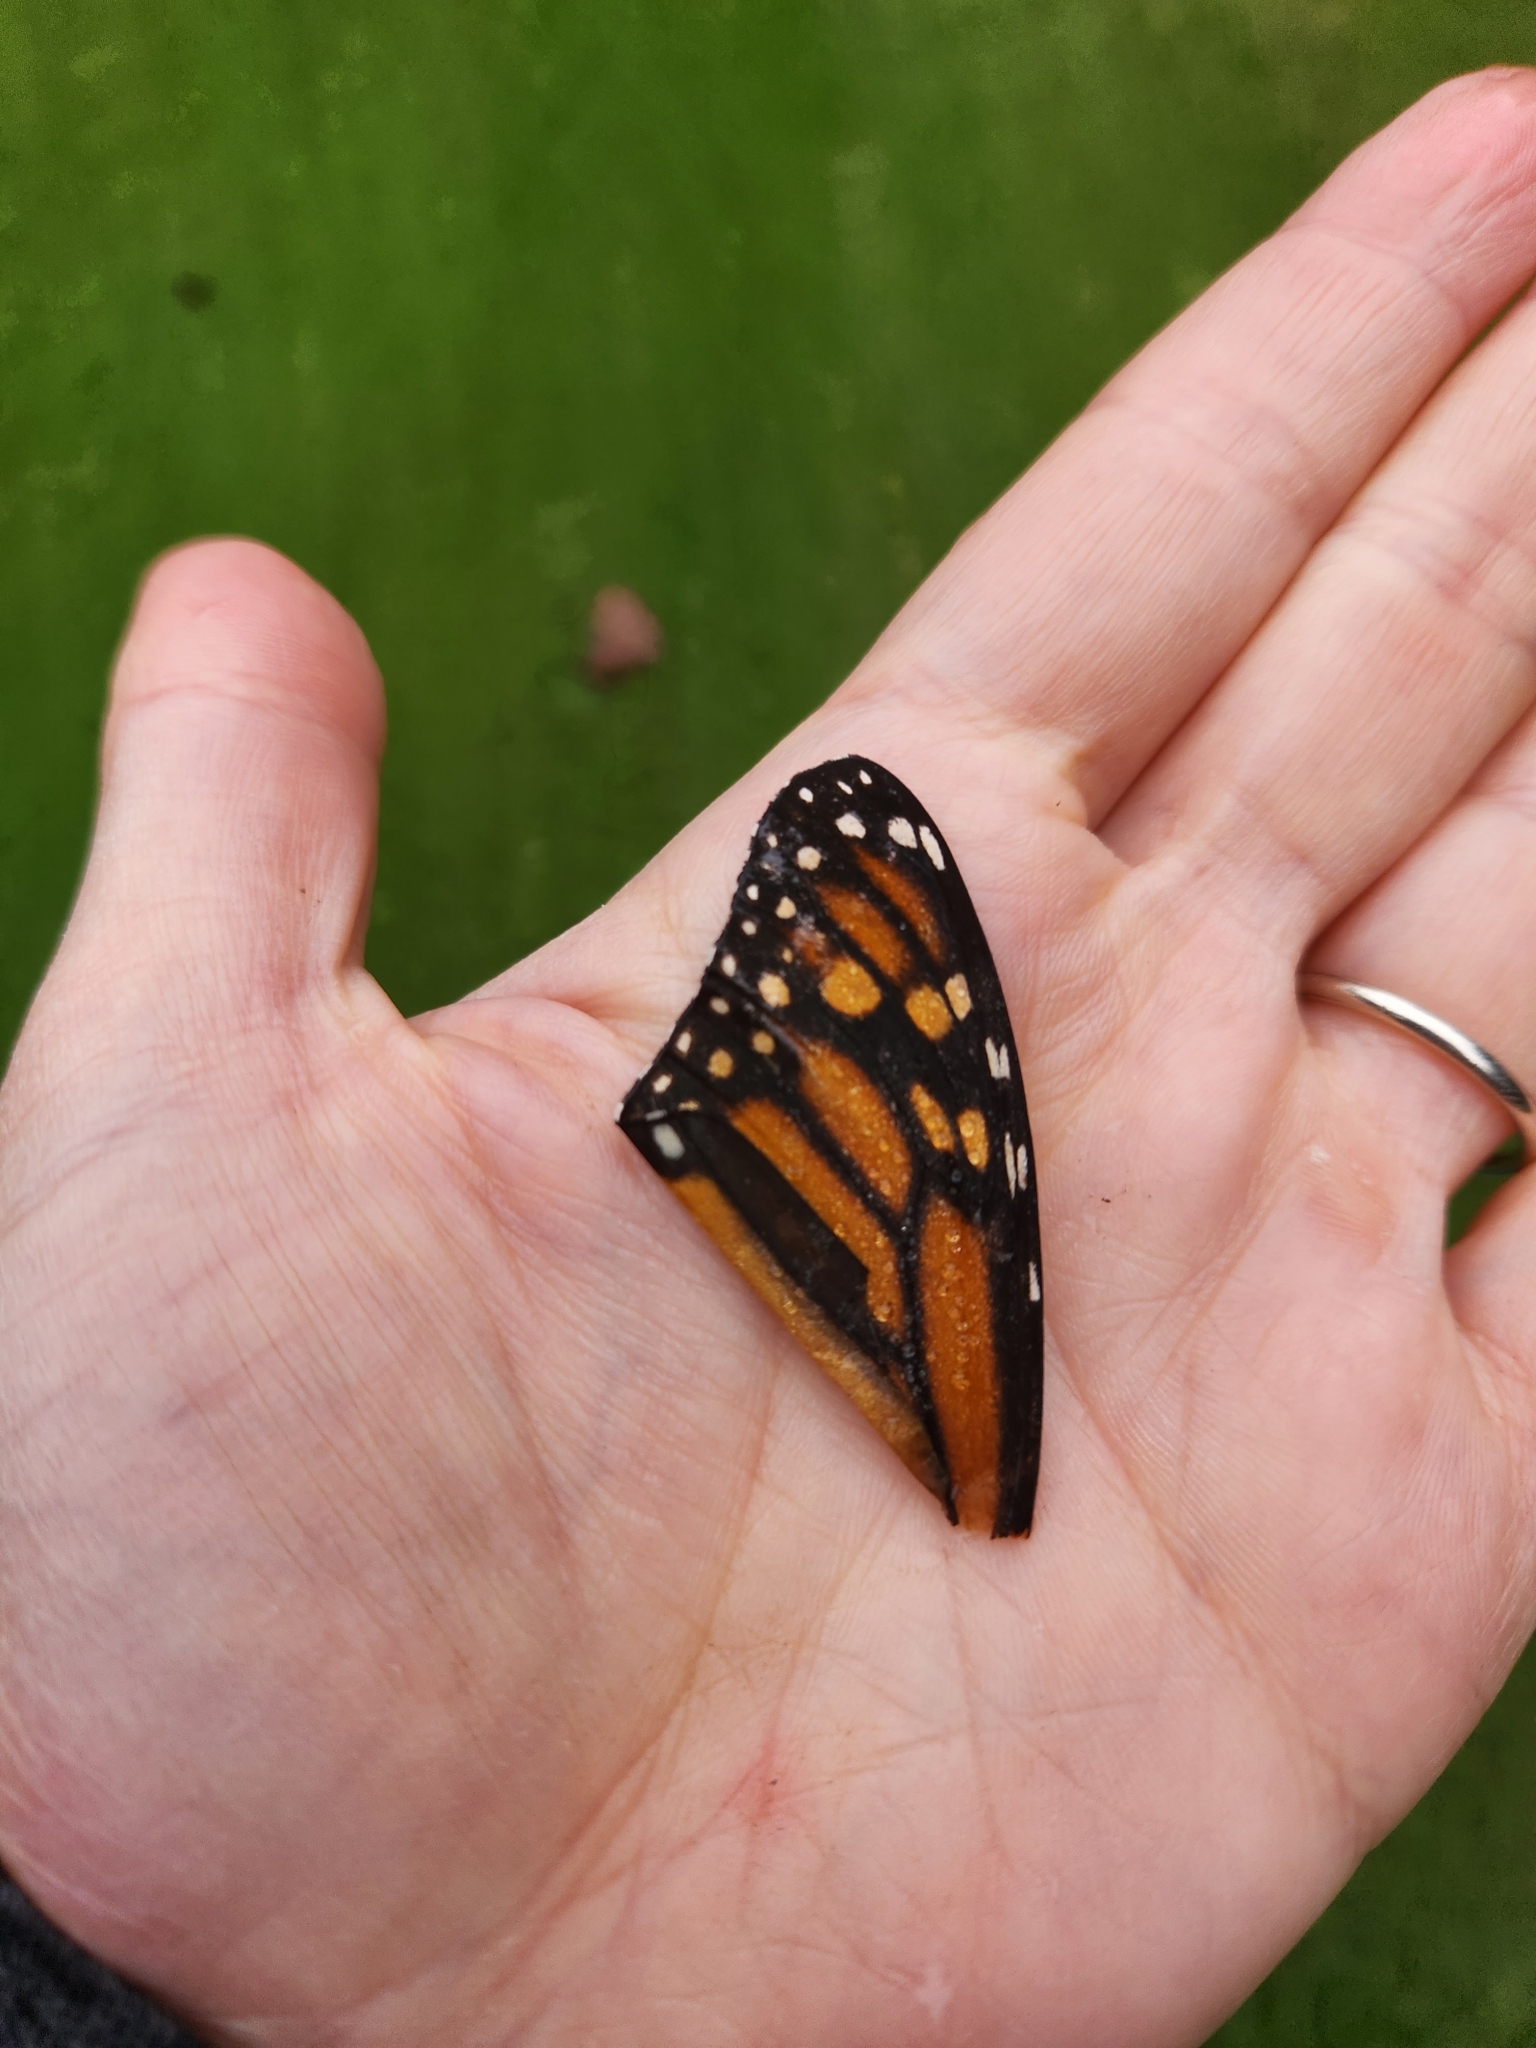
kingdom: Animalia
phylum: Arthropoda
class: Insecta
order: Lepidoptera
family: Nymphalidae
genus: Danaus
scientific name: Danaus plexippus
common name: Monarch
